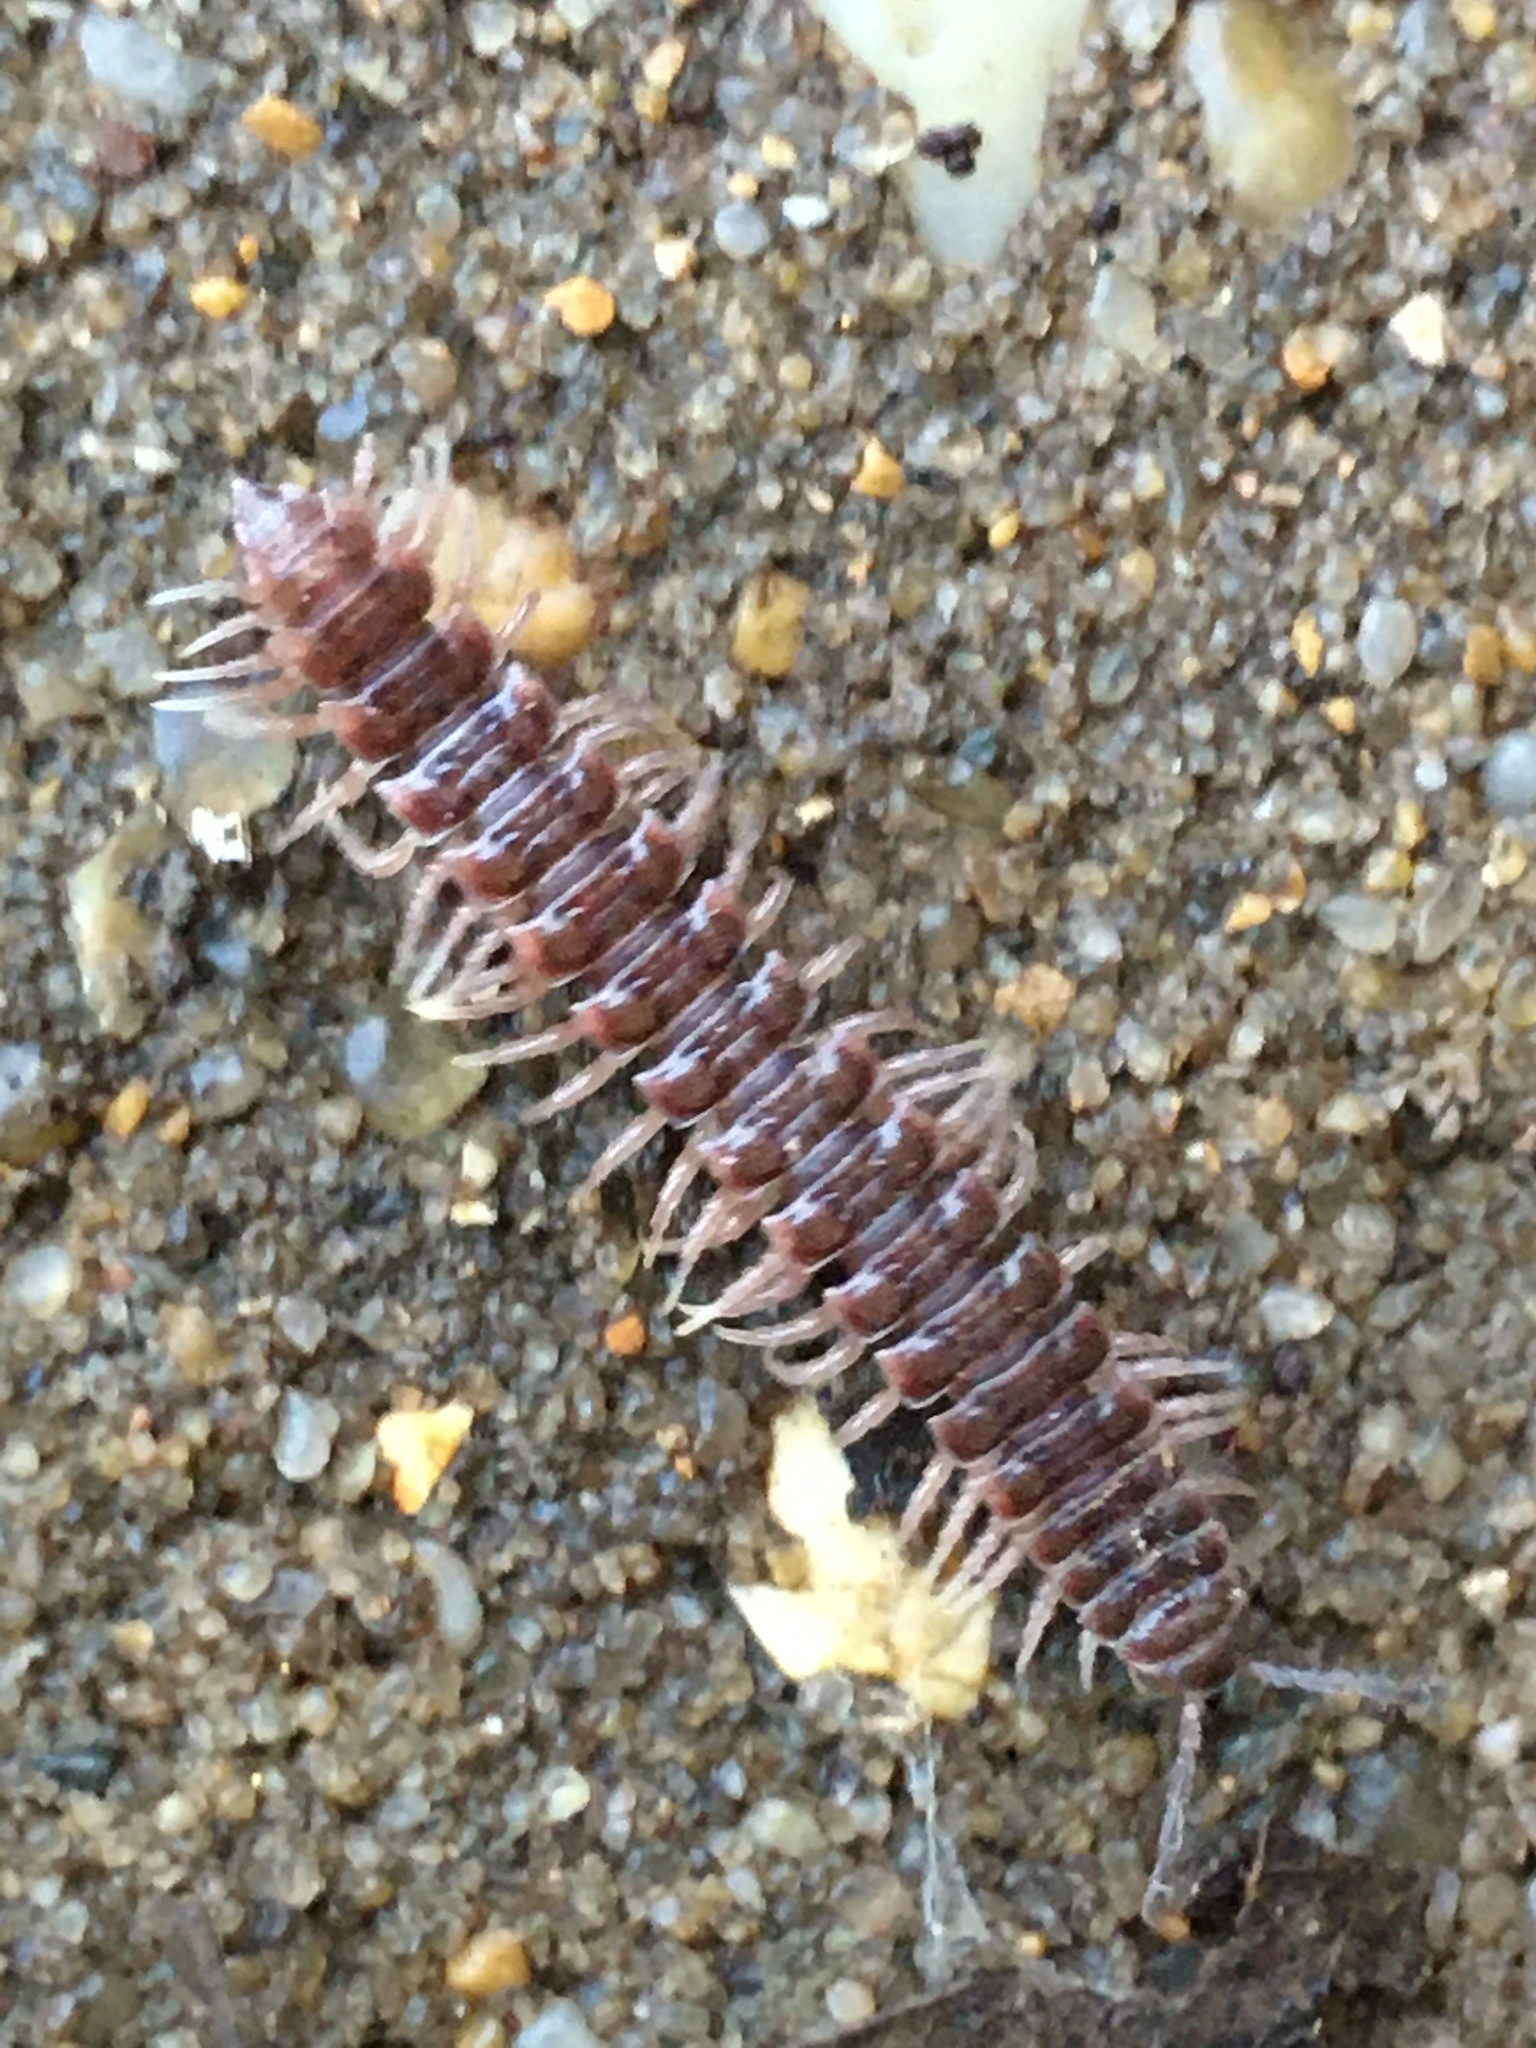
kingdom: Animalia
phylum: Arthropoda
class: Diplopoda
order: Polydesmida
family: Polydesmidae
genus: Pseudopolydesmus
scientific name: Pseudopolydesmus pinetorum
